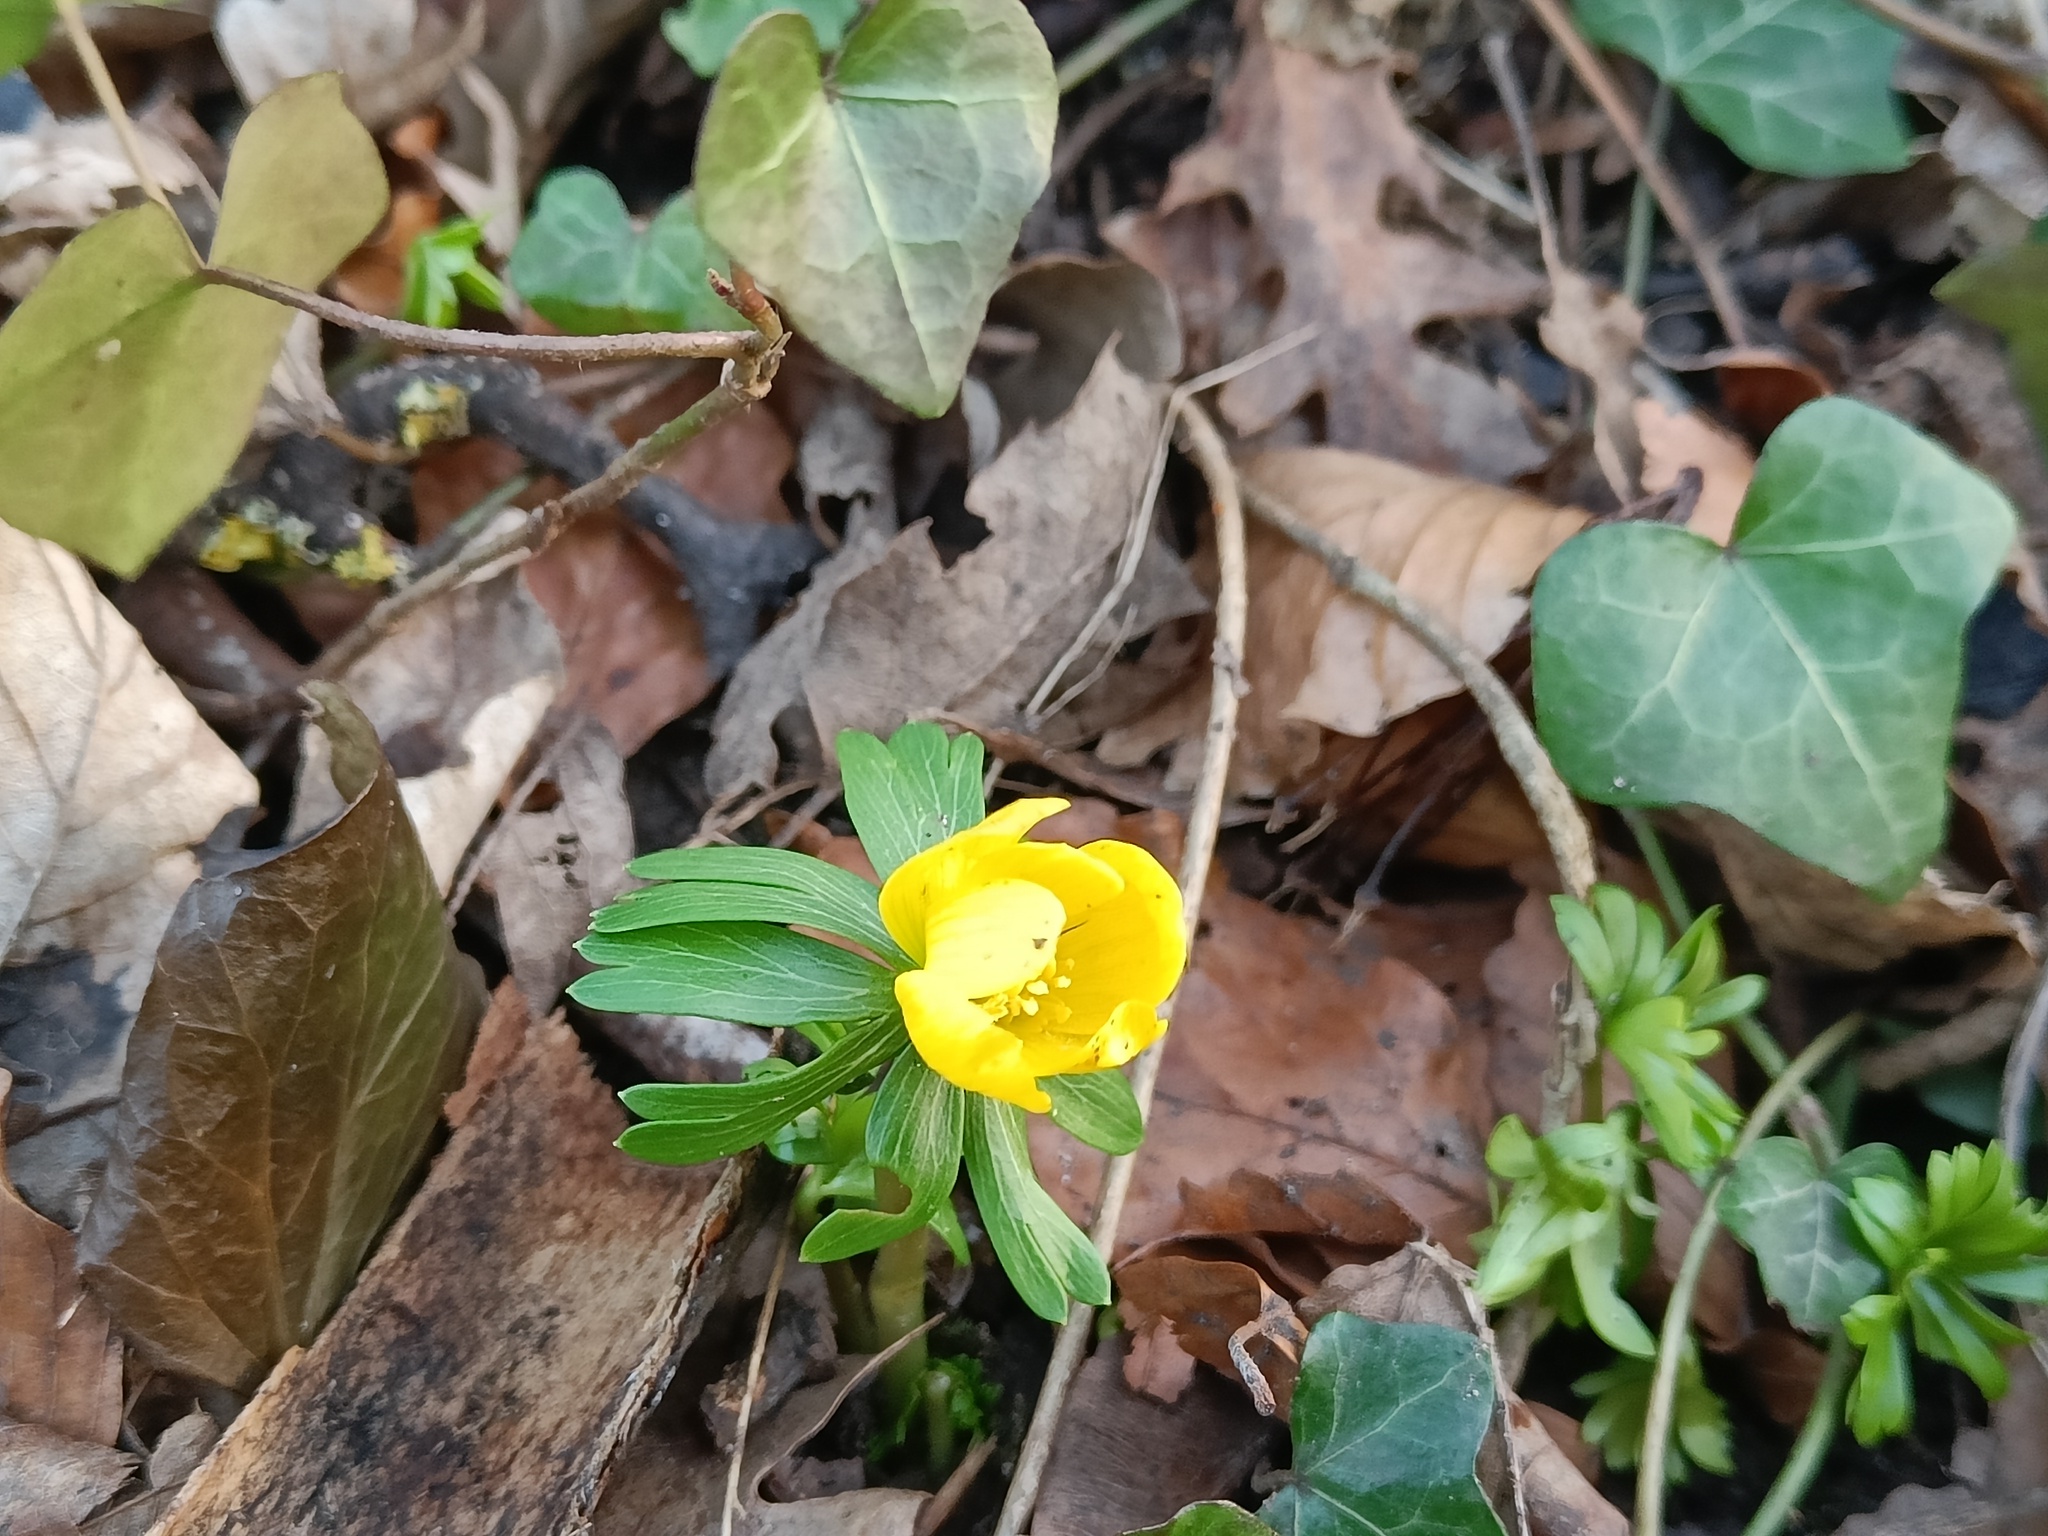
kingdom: Plantae
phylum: Tracheophyta
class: Magnoliopsida
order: Ranunculales
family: Ranunculaceae
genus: Eranthis
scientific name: Eranthis hyemalis
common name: Winter aconite
